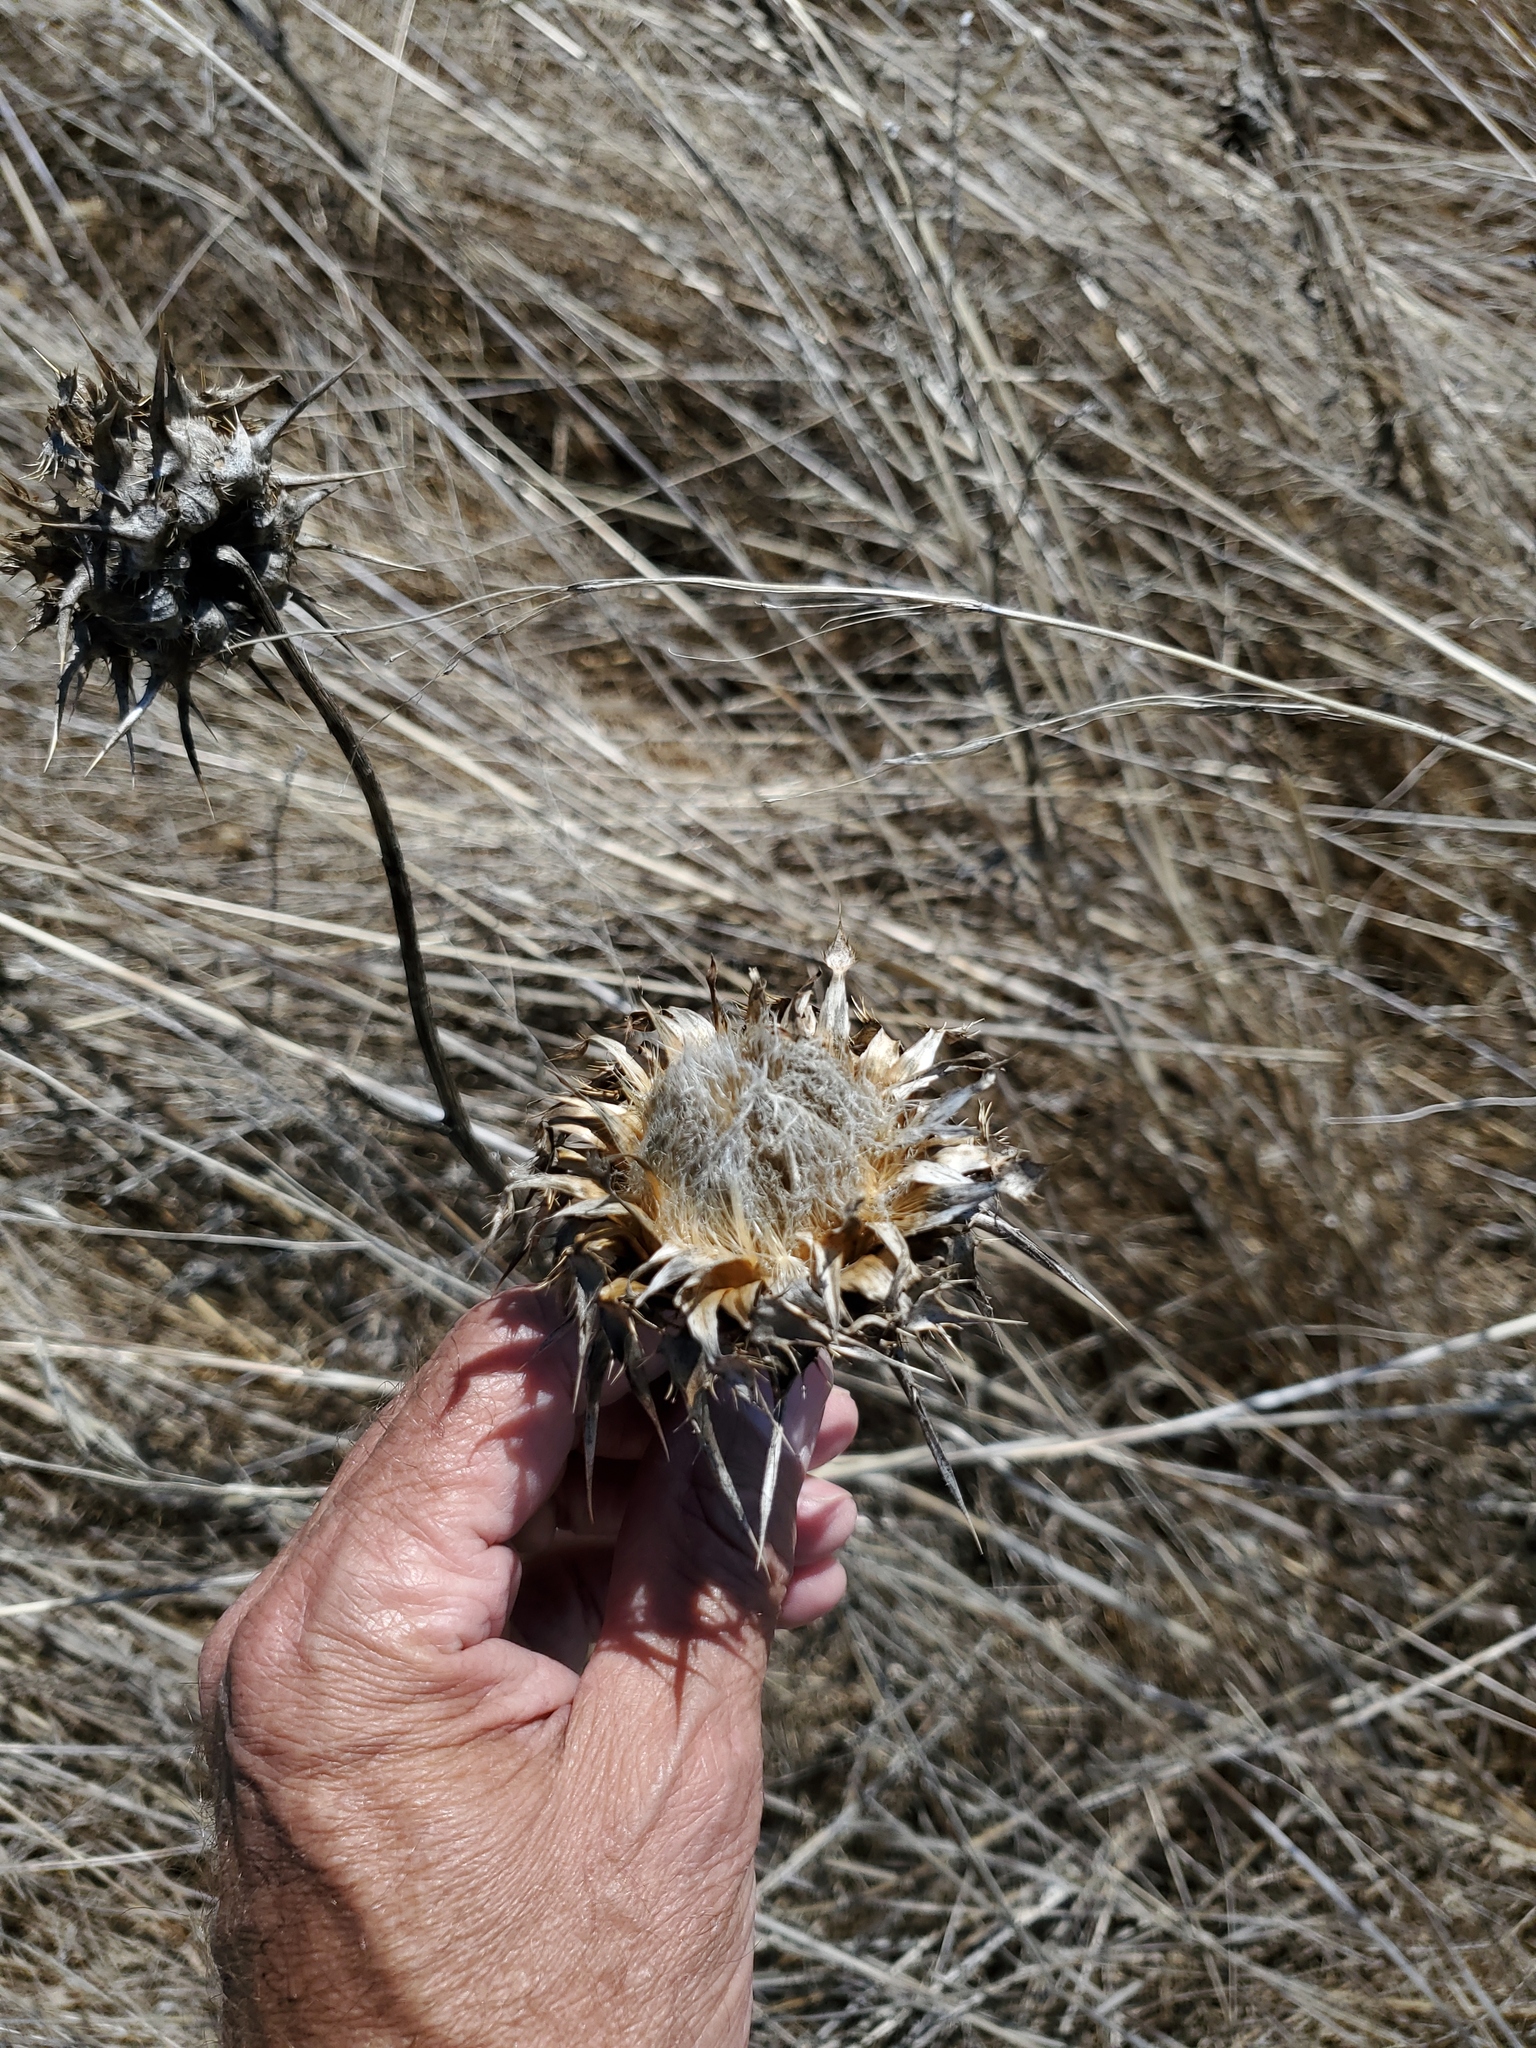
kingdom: Plantae
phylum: Tracheophyta
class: Magnoliopsida
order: Asterales
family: Asteraceae
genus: Silybum
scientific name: Silybum marianum
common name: Milk thistle
